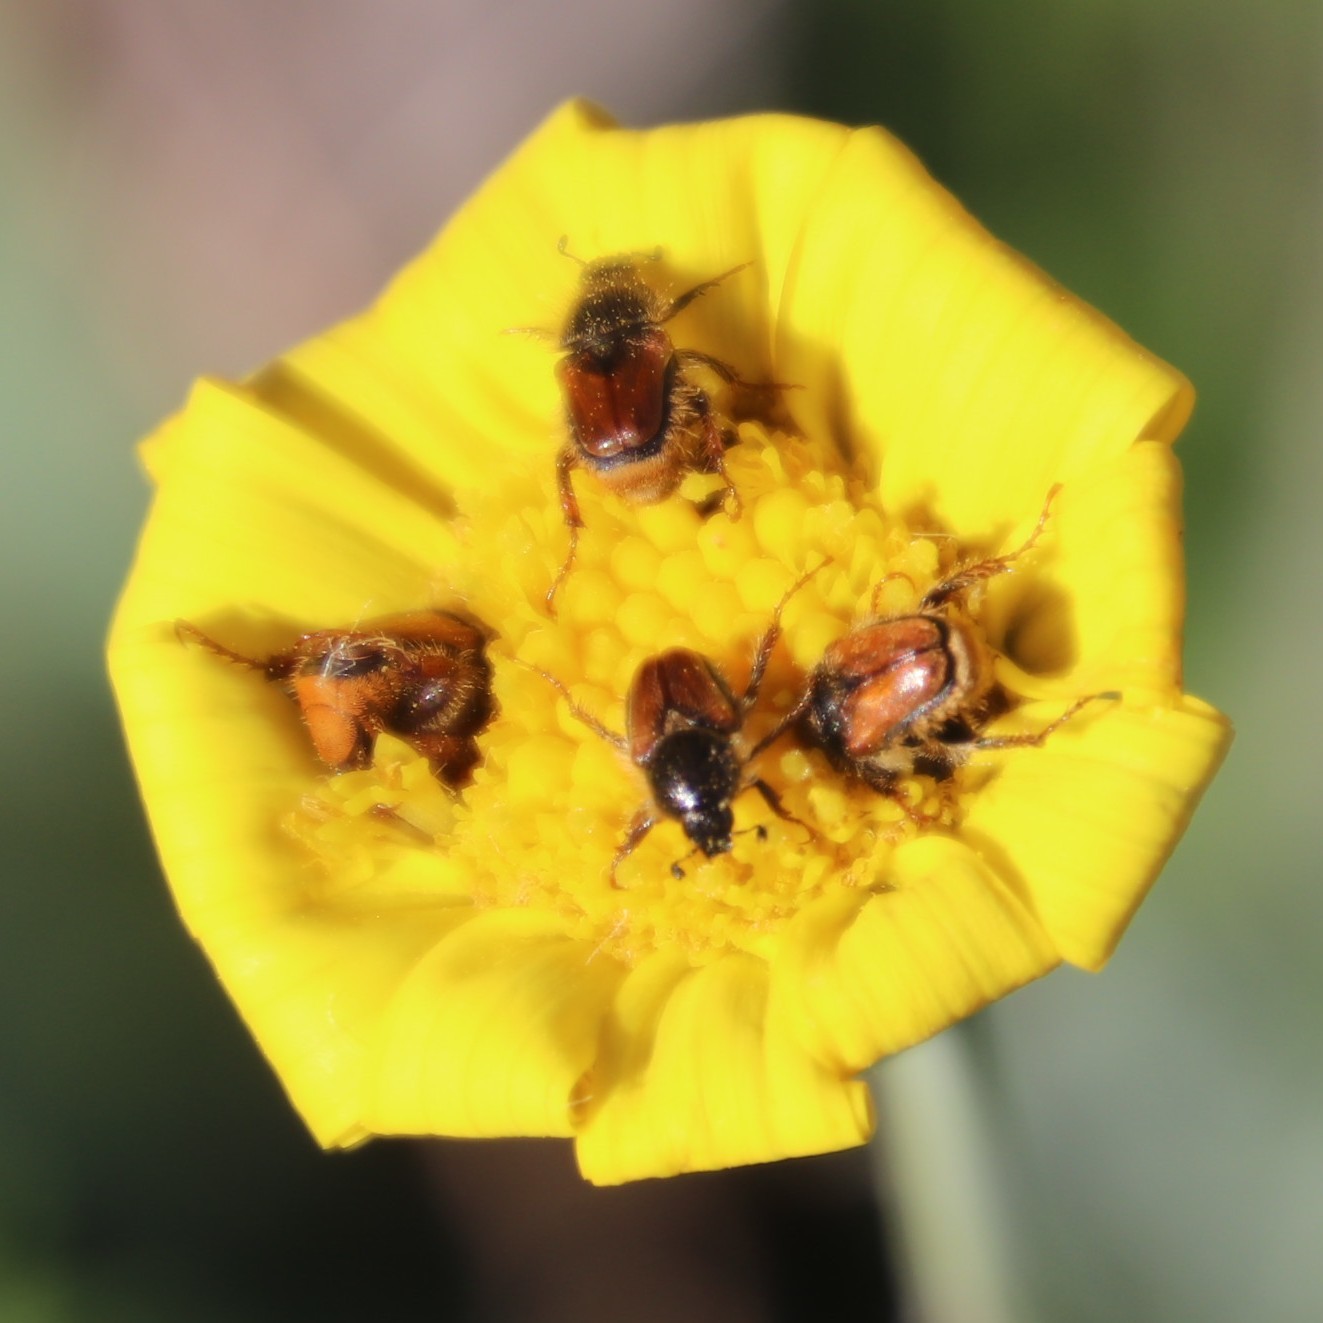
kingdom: Plantae
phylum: Tracheophyta
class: Magnoliopsida
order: Asterales
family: Asteraceae
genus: Othonna
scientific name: Othonna bulbosa
